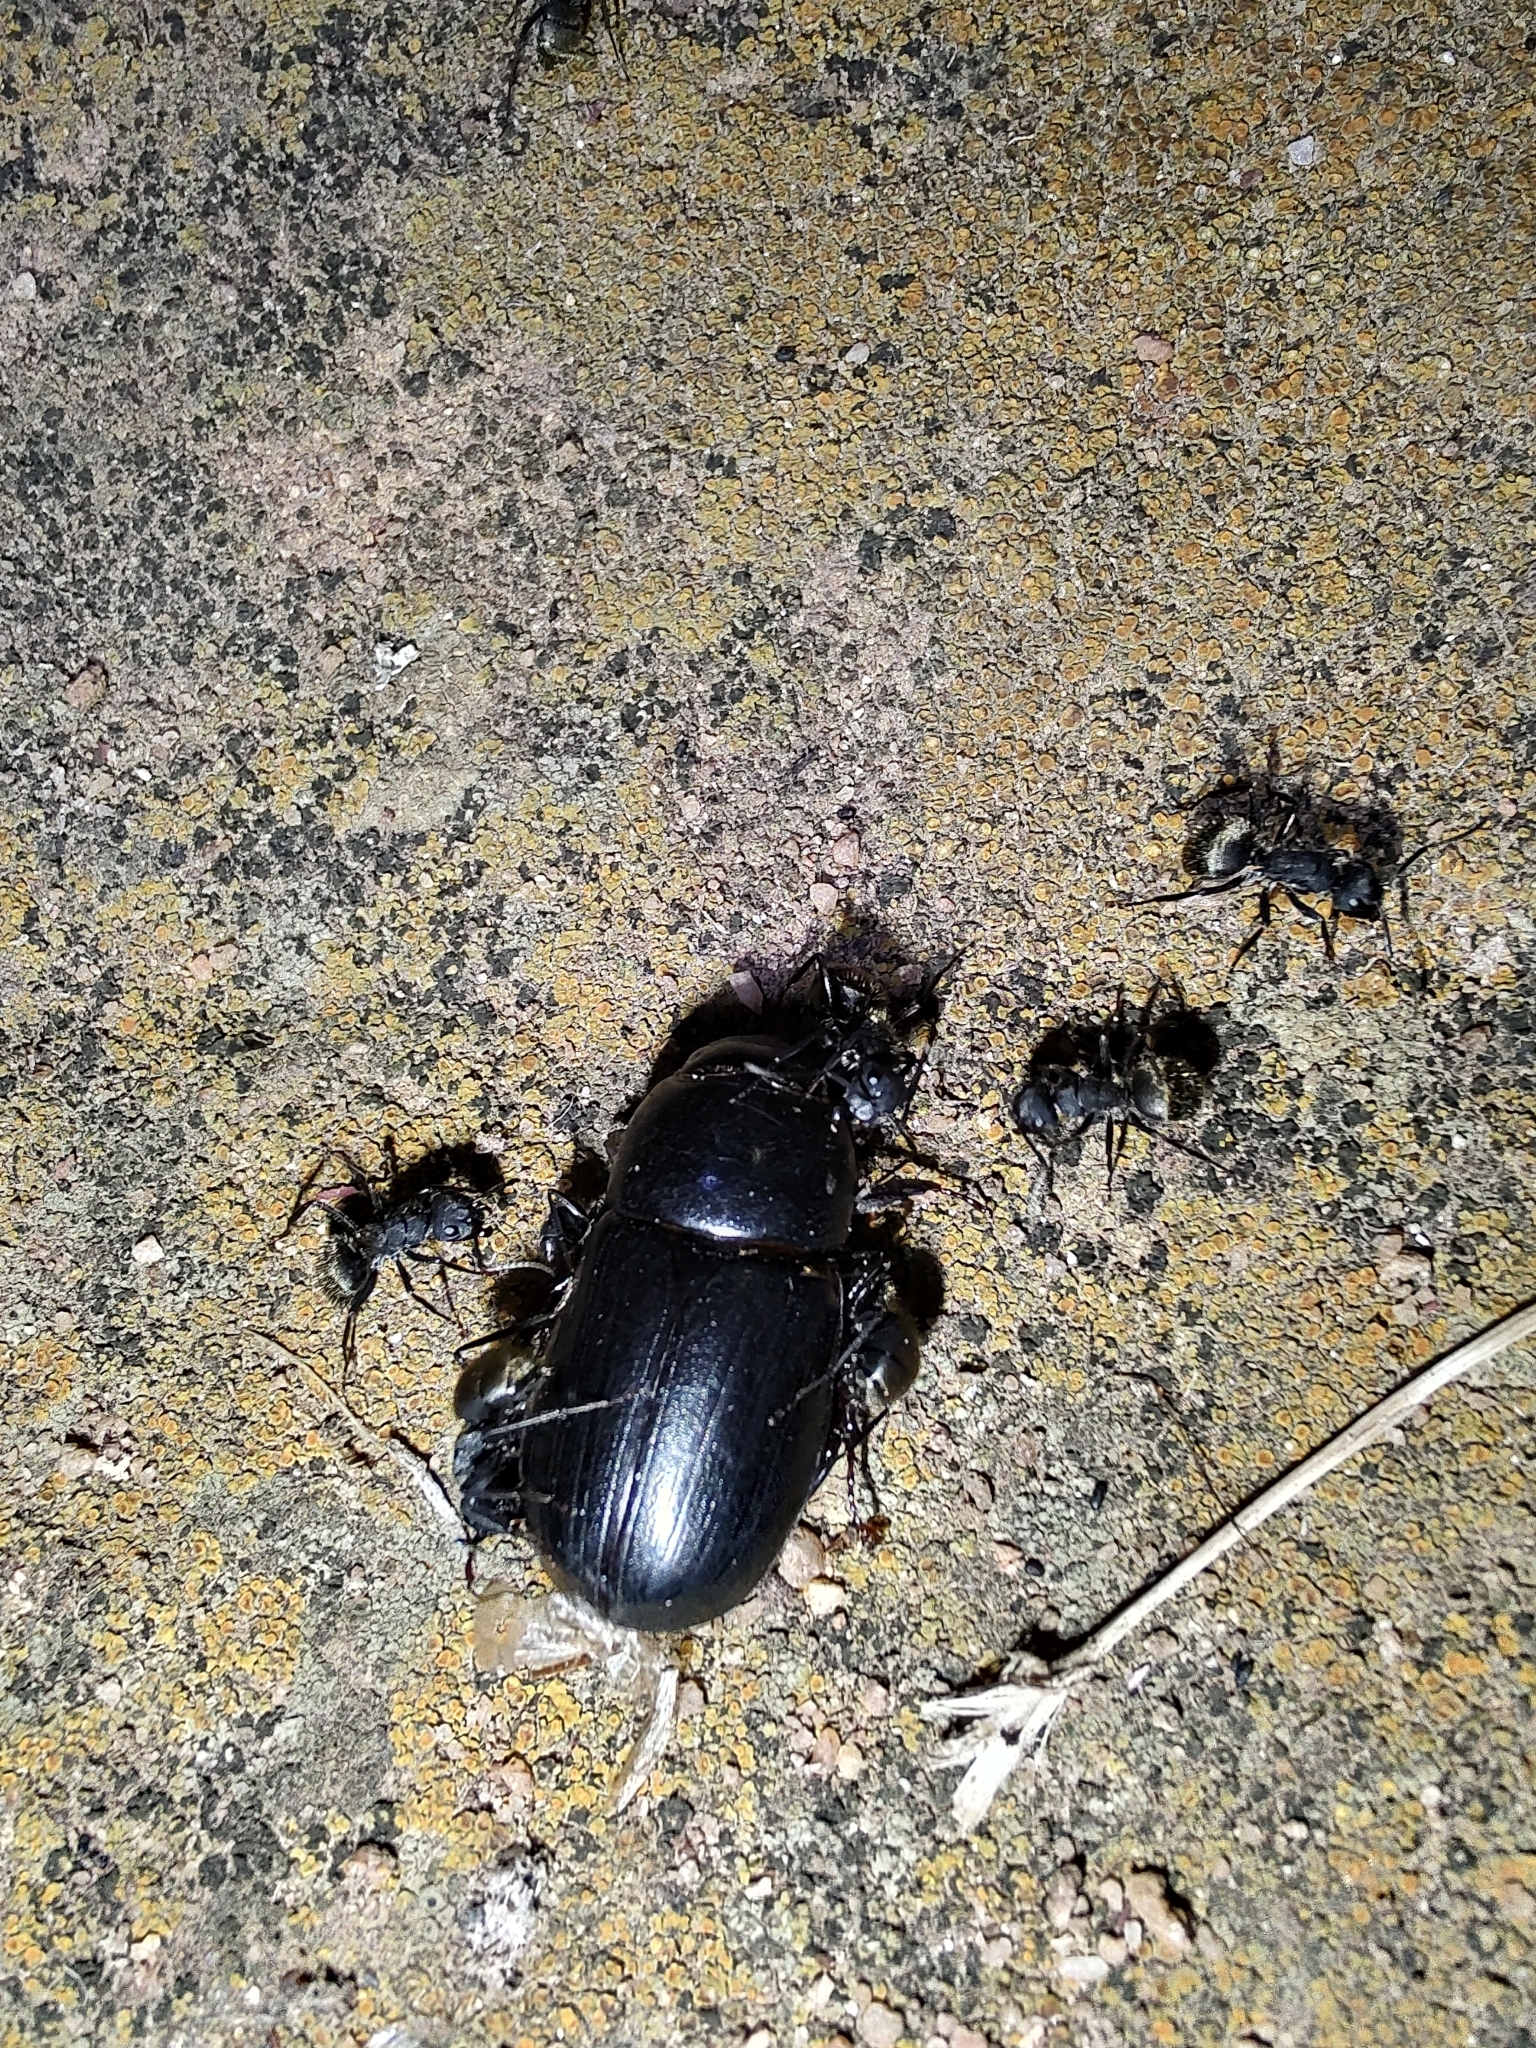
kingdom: Animalia
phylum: Arthropoda
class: Insecta
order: Hymenoptera
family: Formicidae
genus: Camponotus
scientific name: Camponotus mus
